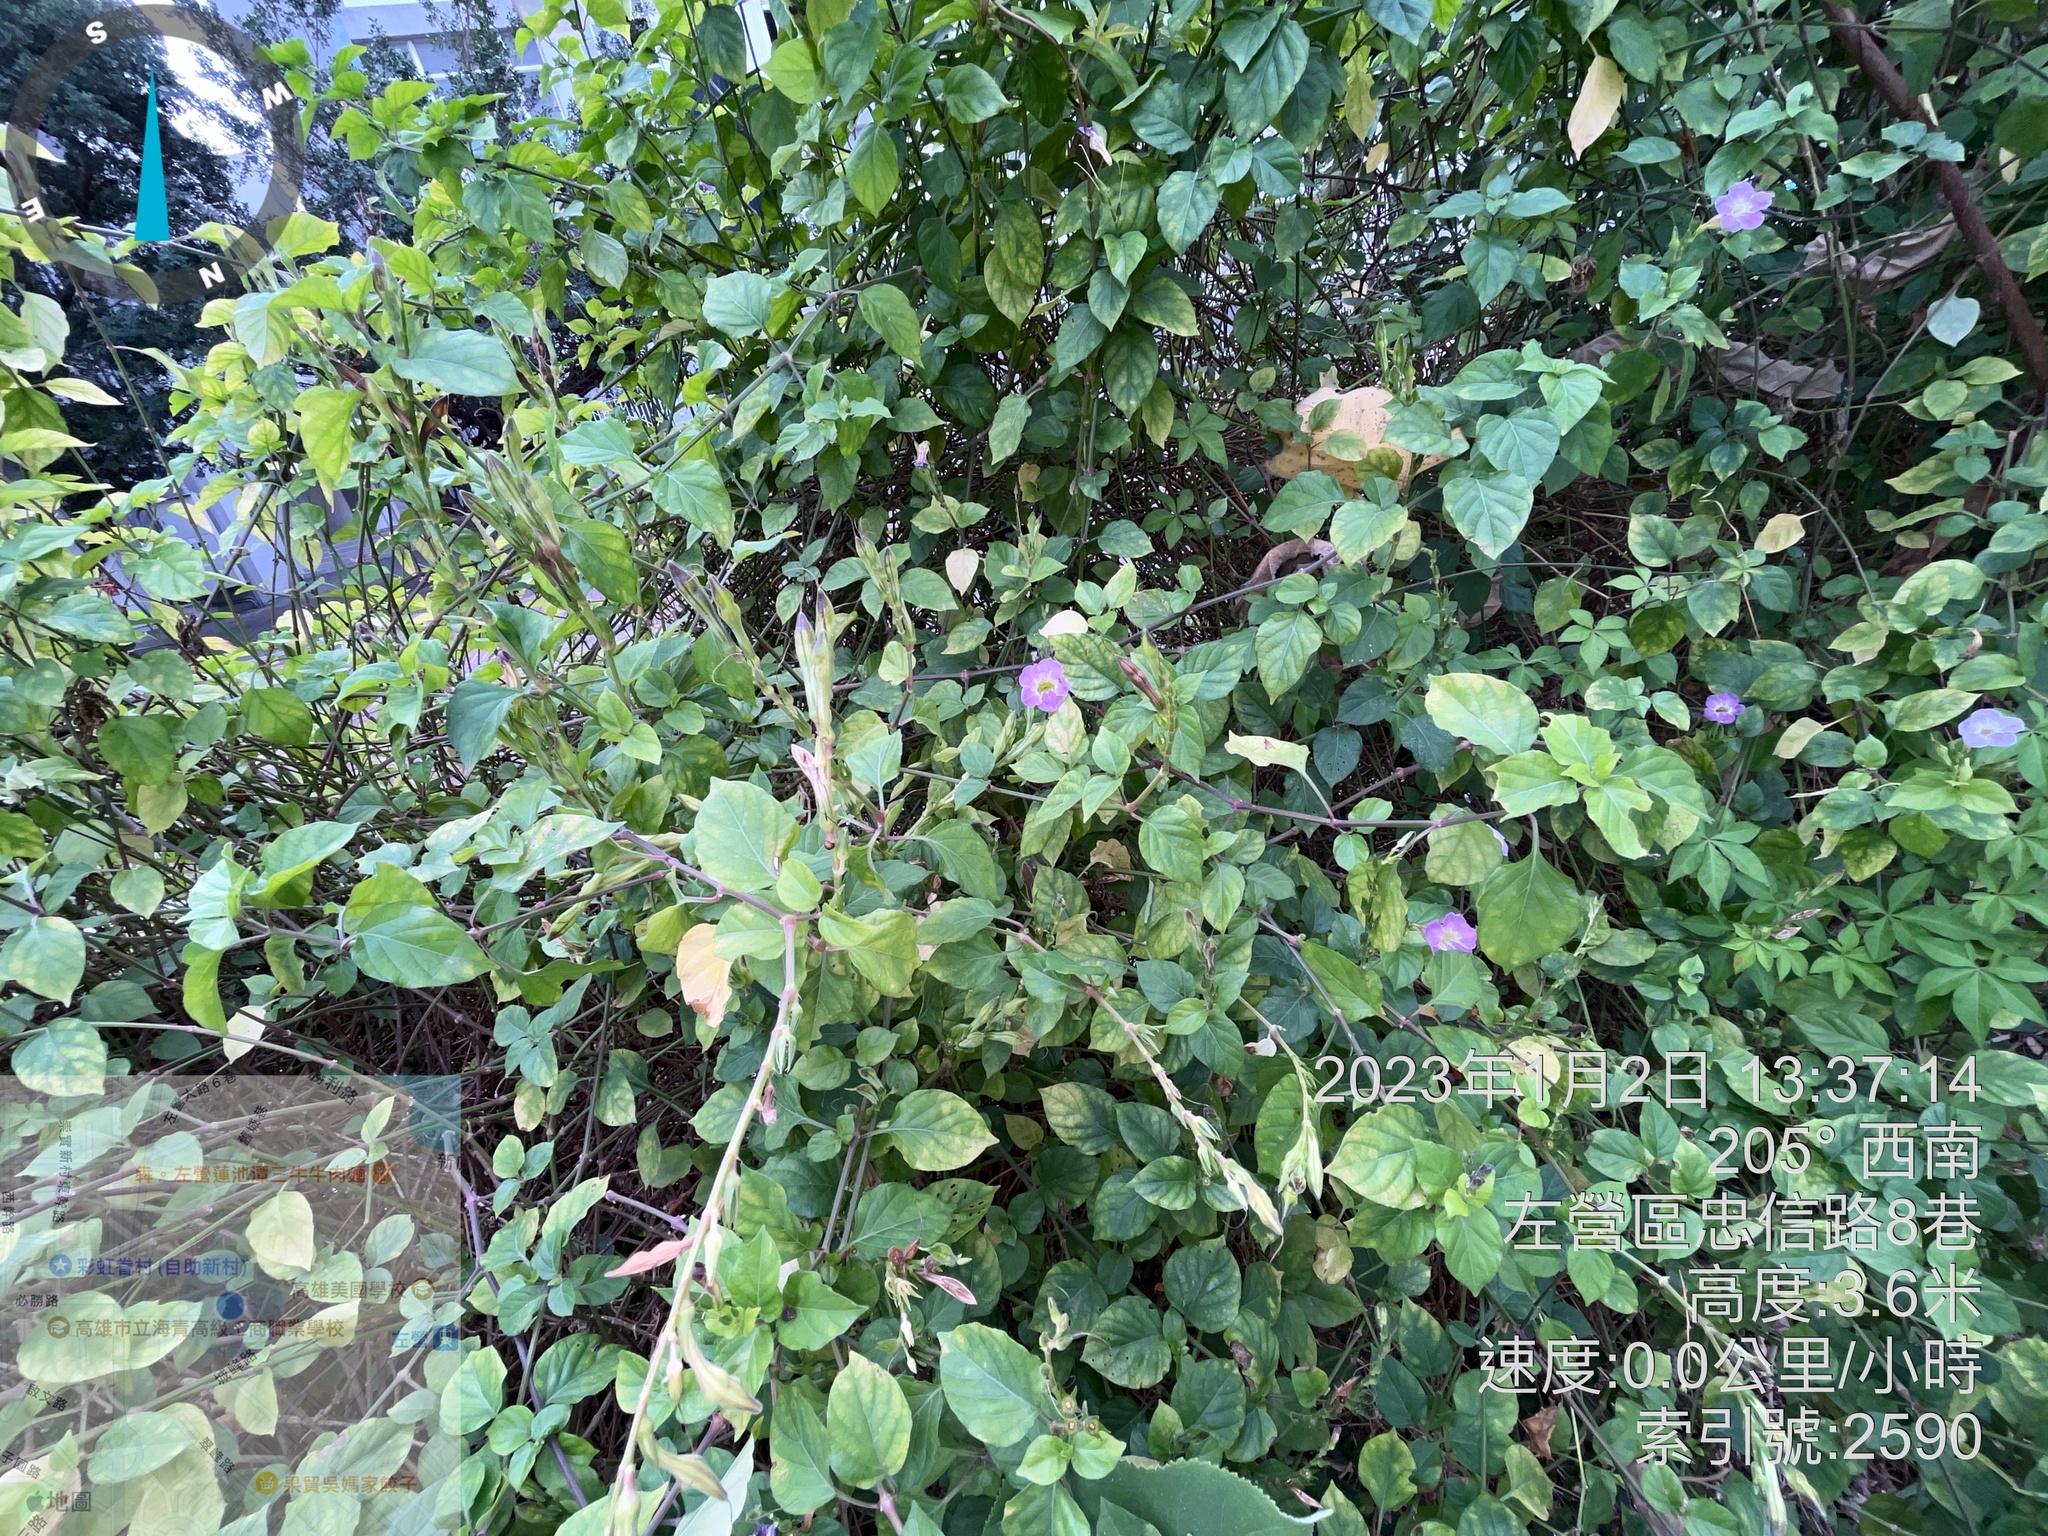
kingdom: Plantae
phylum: Tracheophyta
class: Magnoliopsida
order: Lamiales
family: Acanthaceae
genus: Asystasia
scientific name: Asystasia gangetica
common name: Chinese violet
